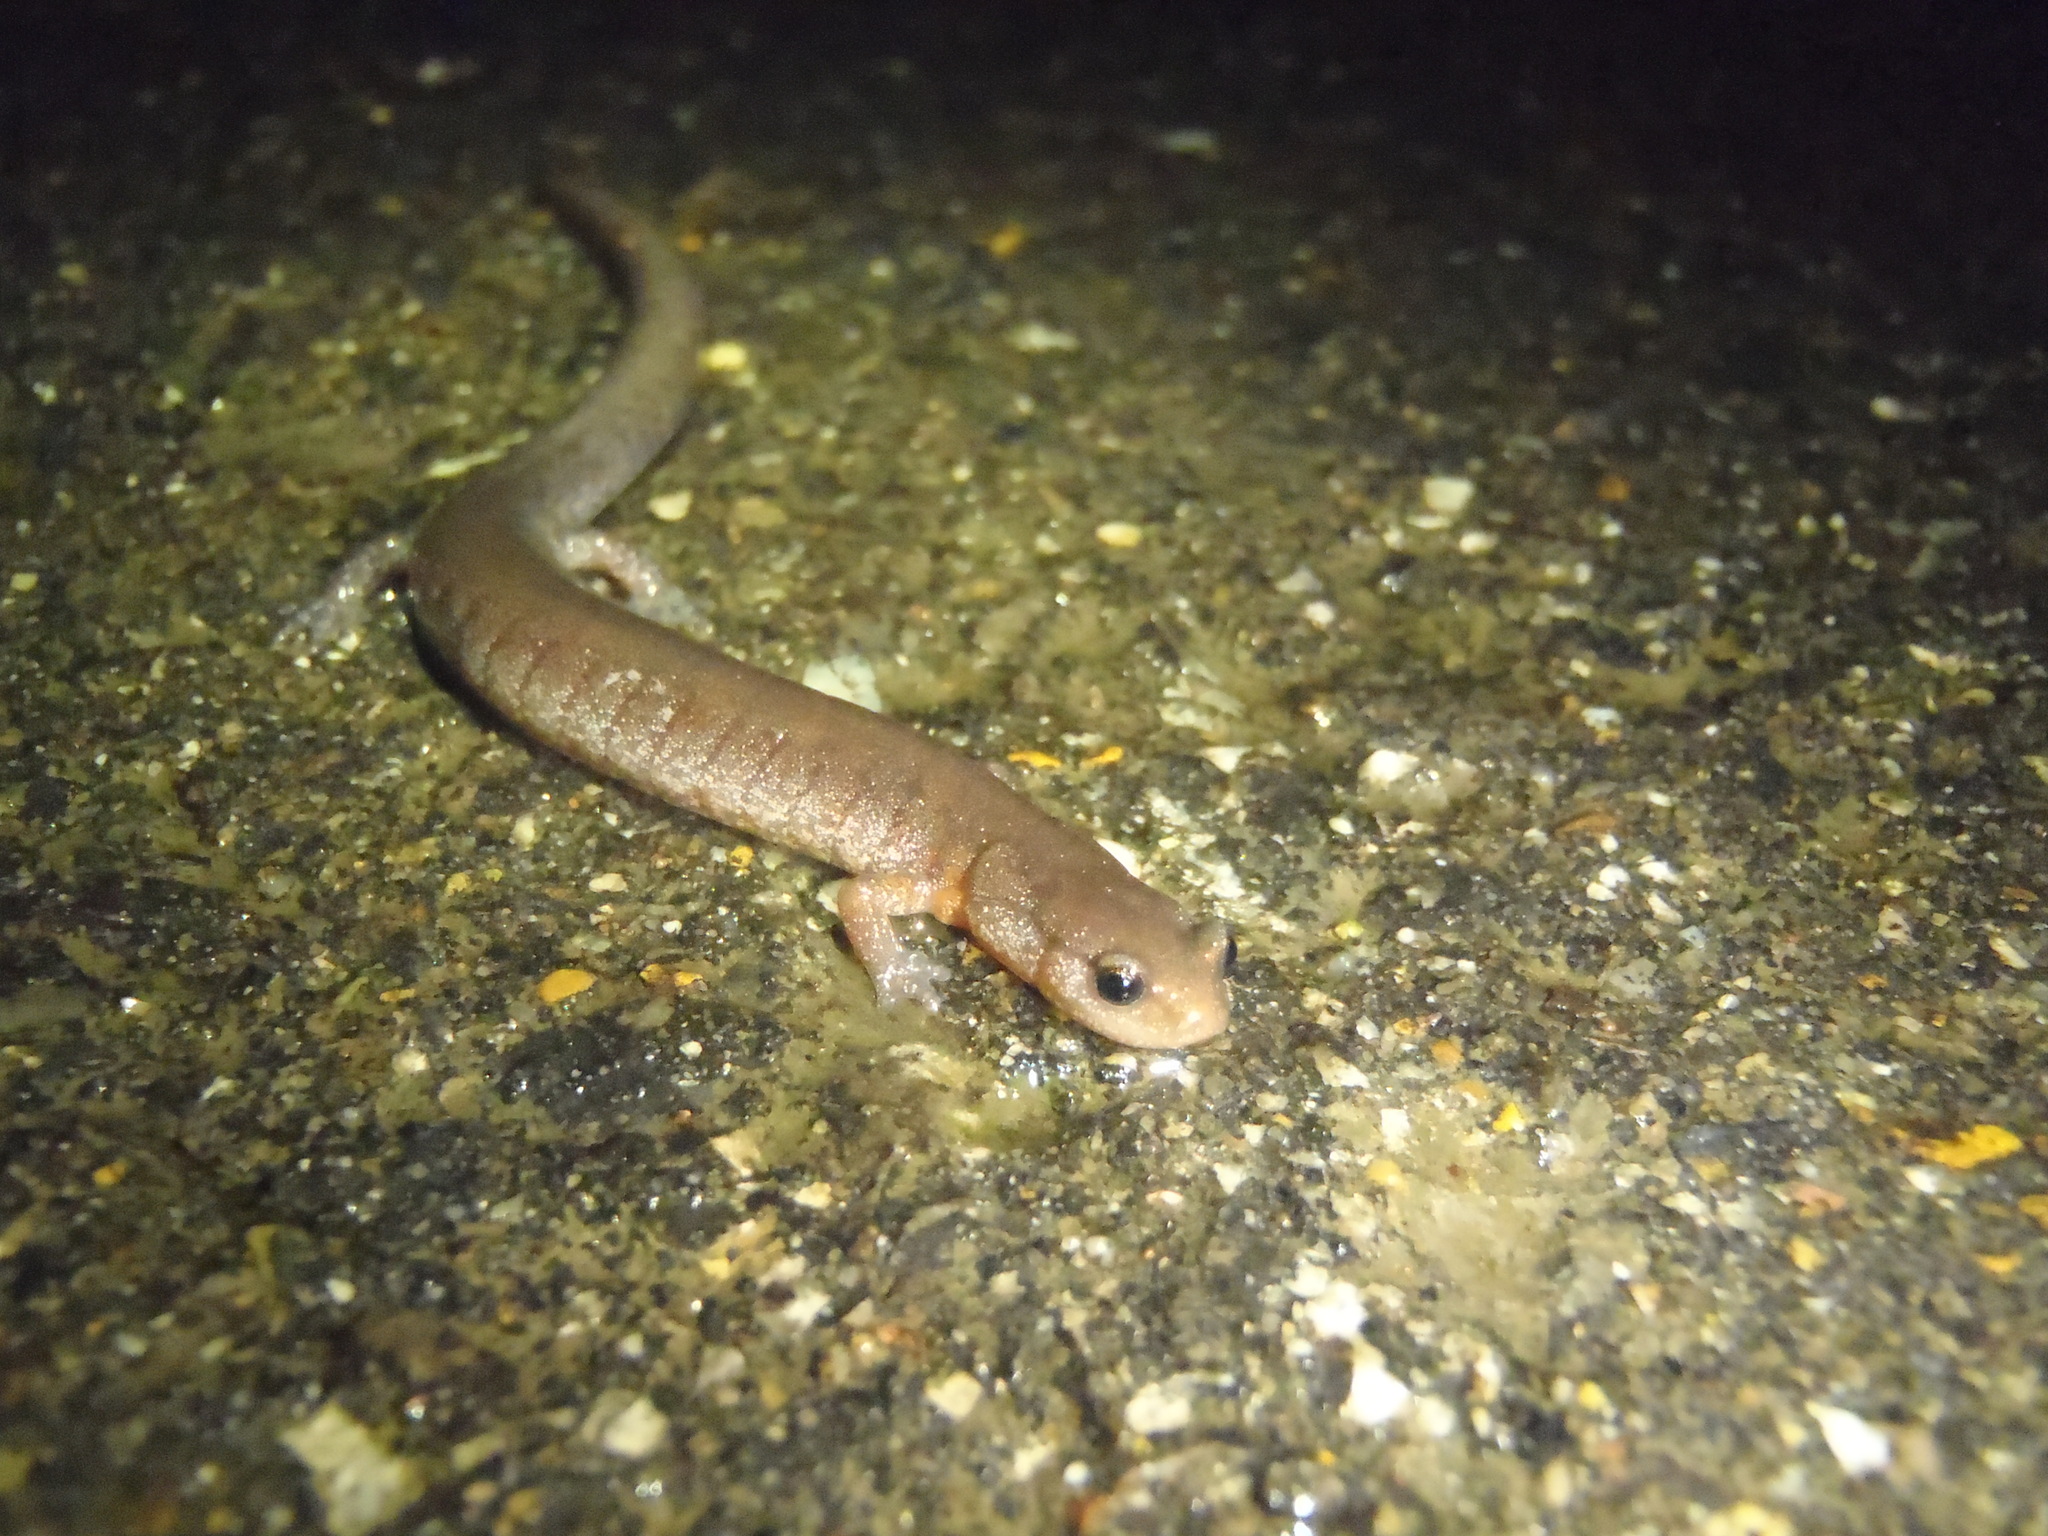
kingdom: Animalia
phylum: Chordata
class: Amphibia
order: Caudata
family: Plethodontidae
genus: Plethodon
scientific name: Plethodon dorsalis
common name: Northern zigzag salamander
